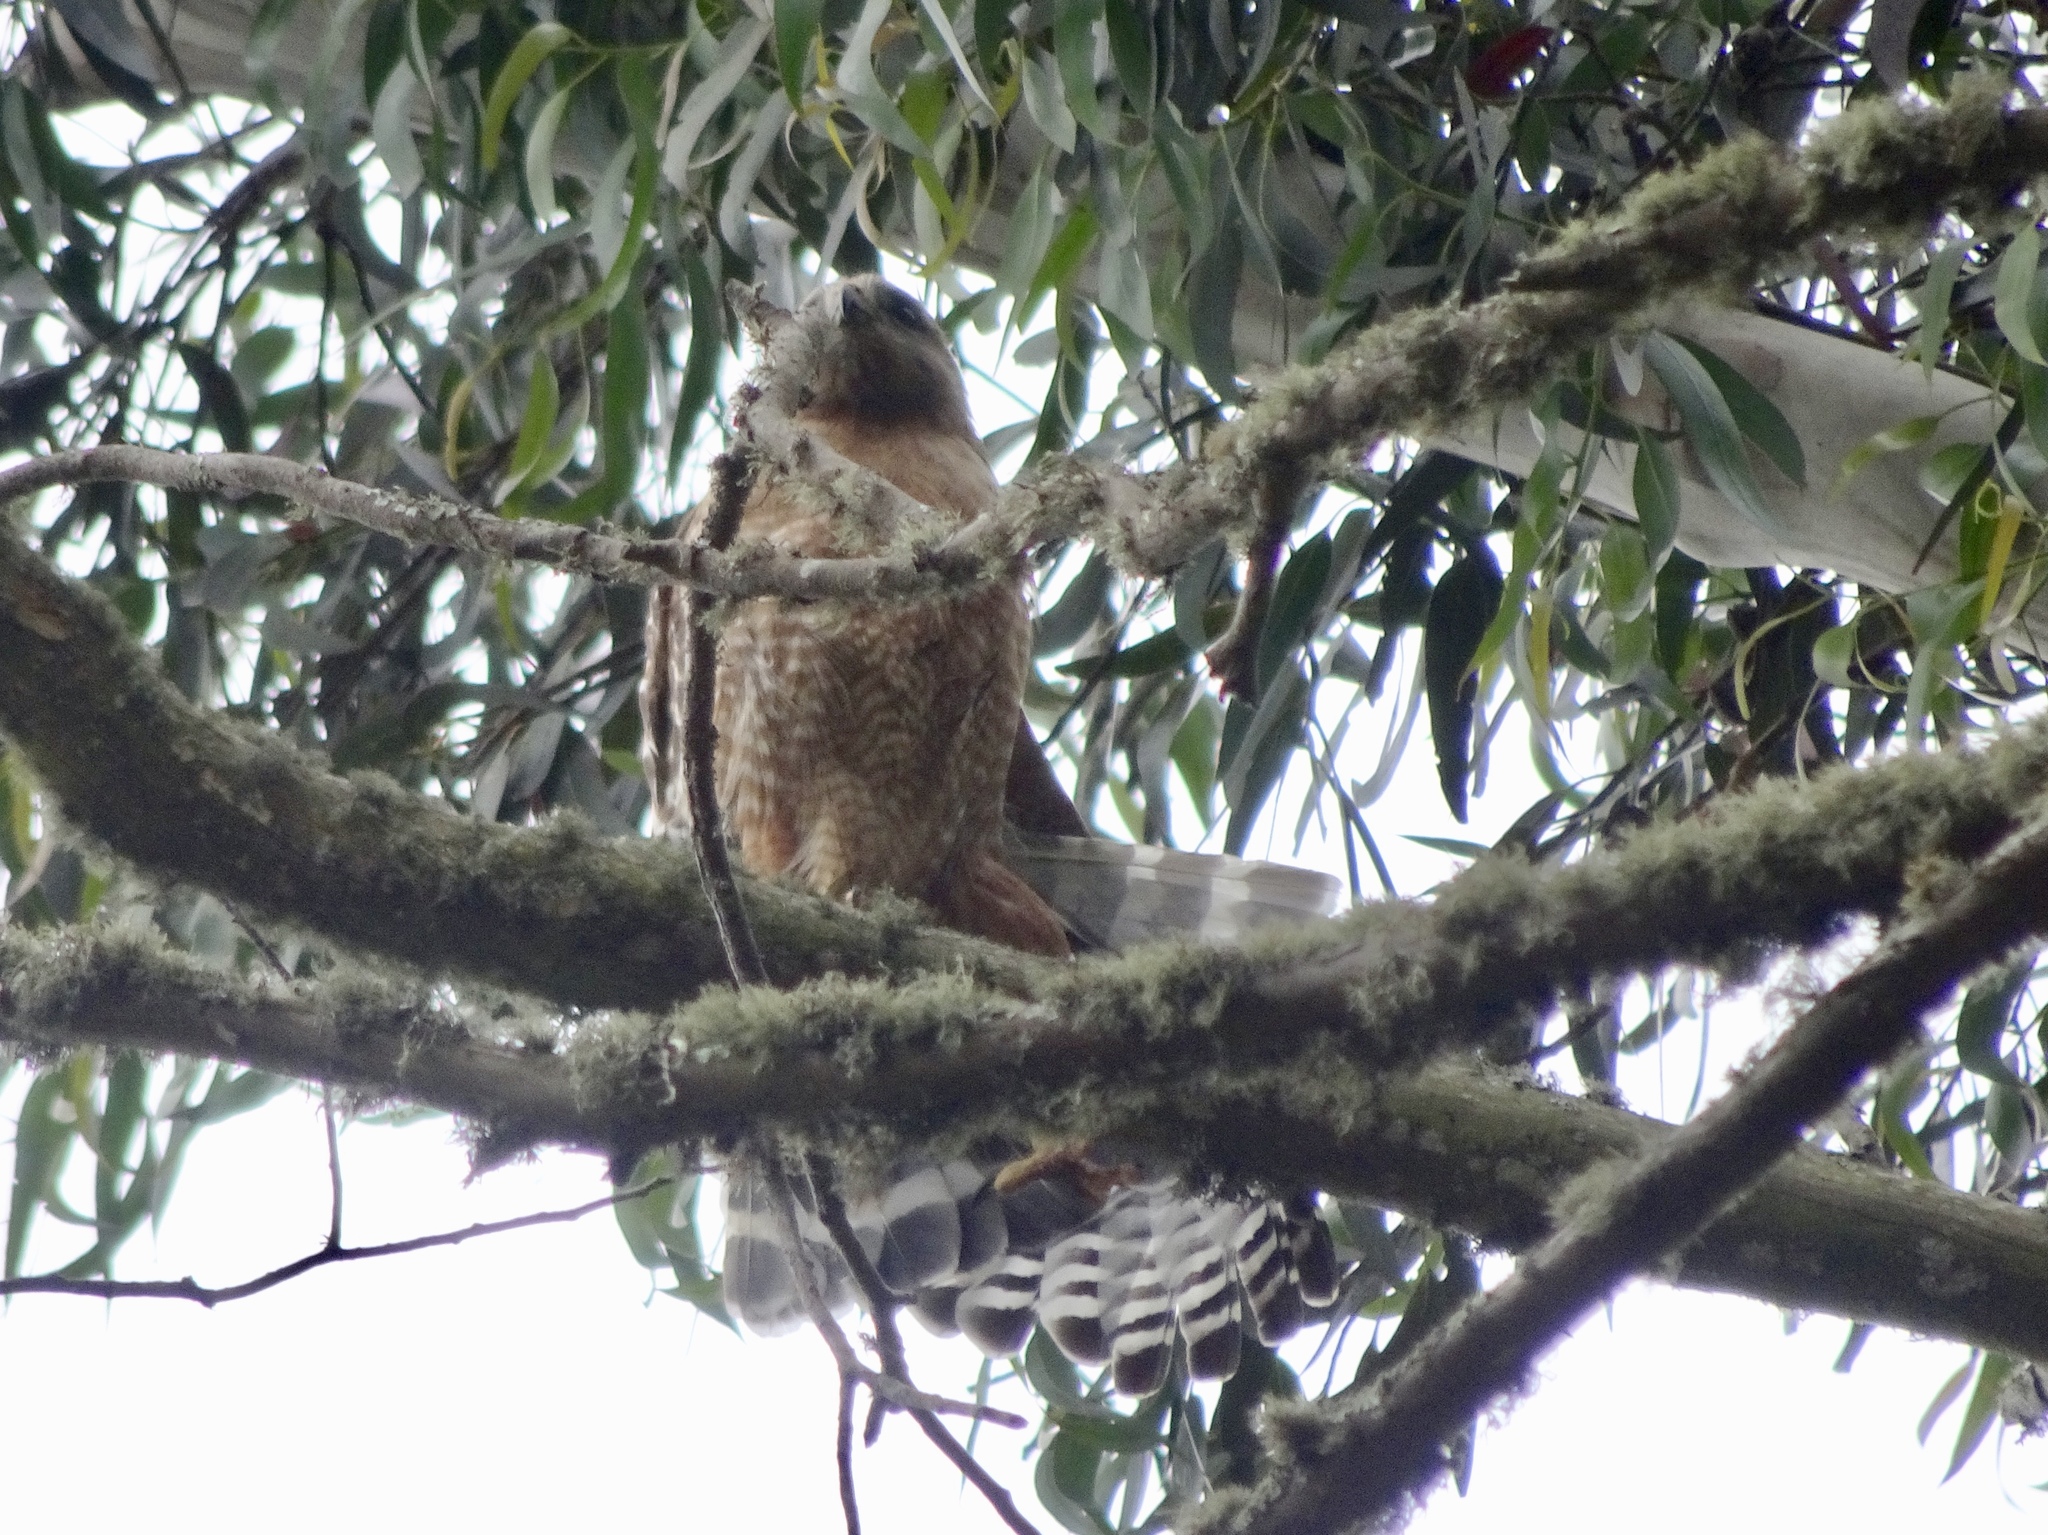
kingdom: Animalia
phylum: Chordata
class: Aves
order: Accipitriformes
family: Accipitridae
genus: Buteo
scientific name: Buteo lineatus
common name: Red-shouldered hawk
